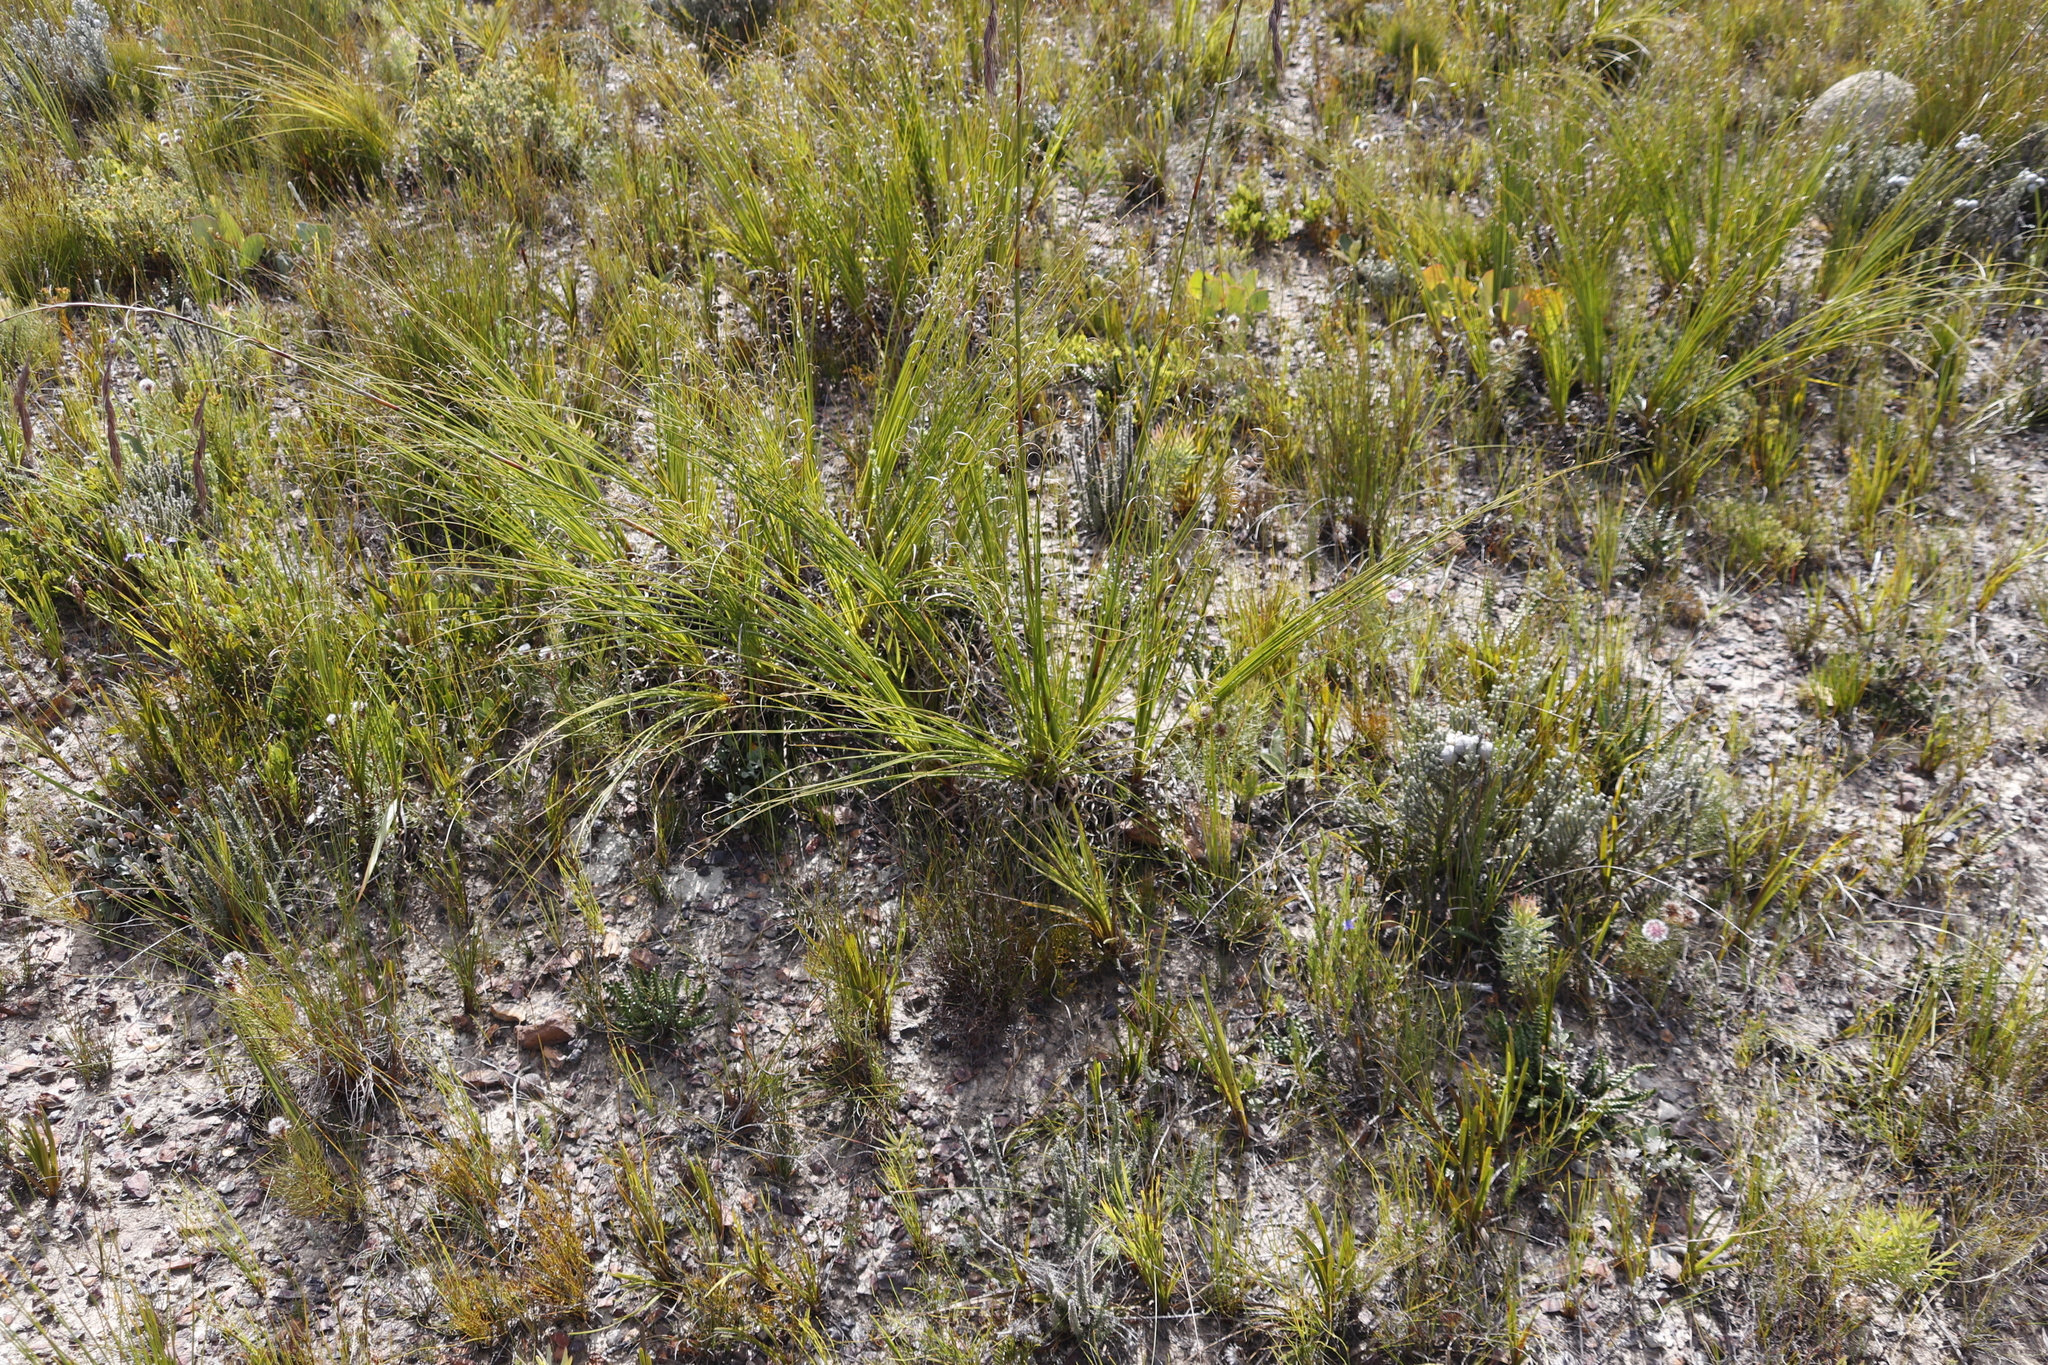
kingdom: Plantae
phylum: Tracheophyta
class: Liliopsida
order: Poales
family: Cyperaceae
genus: Tetraria
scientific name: Tetraria bromoides
